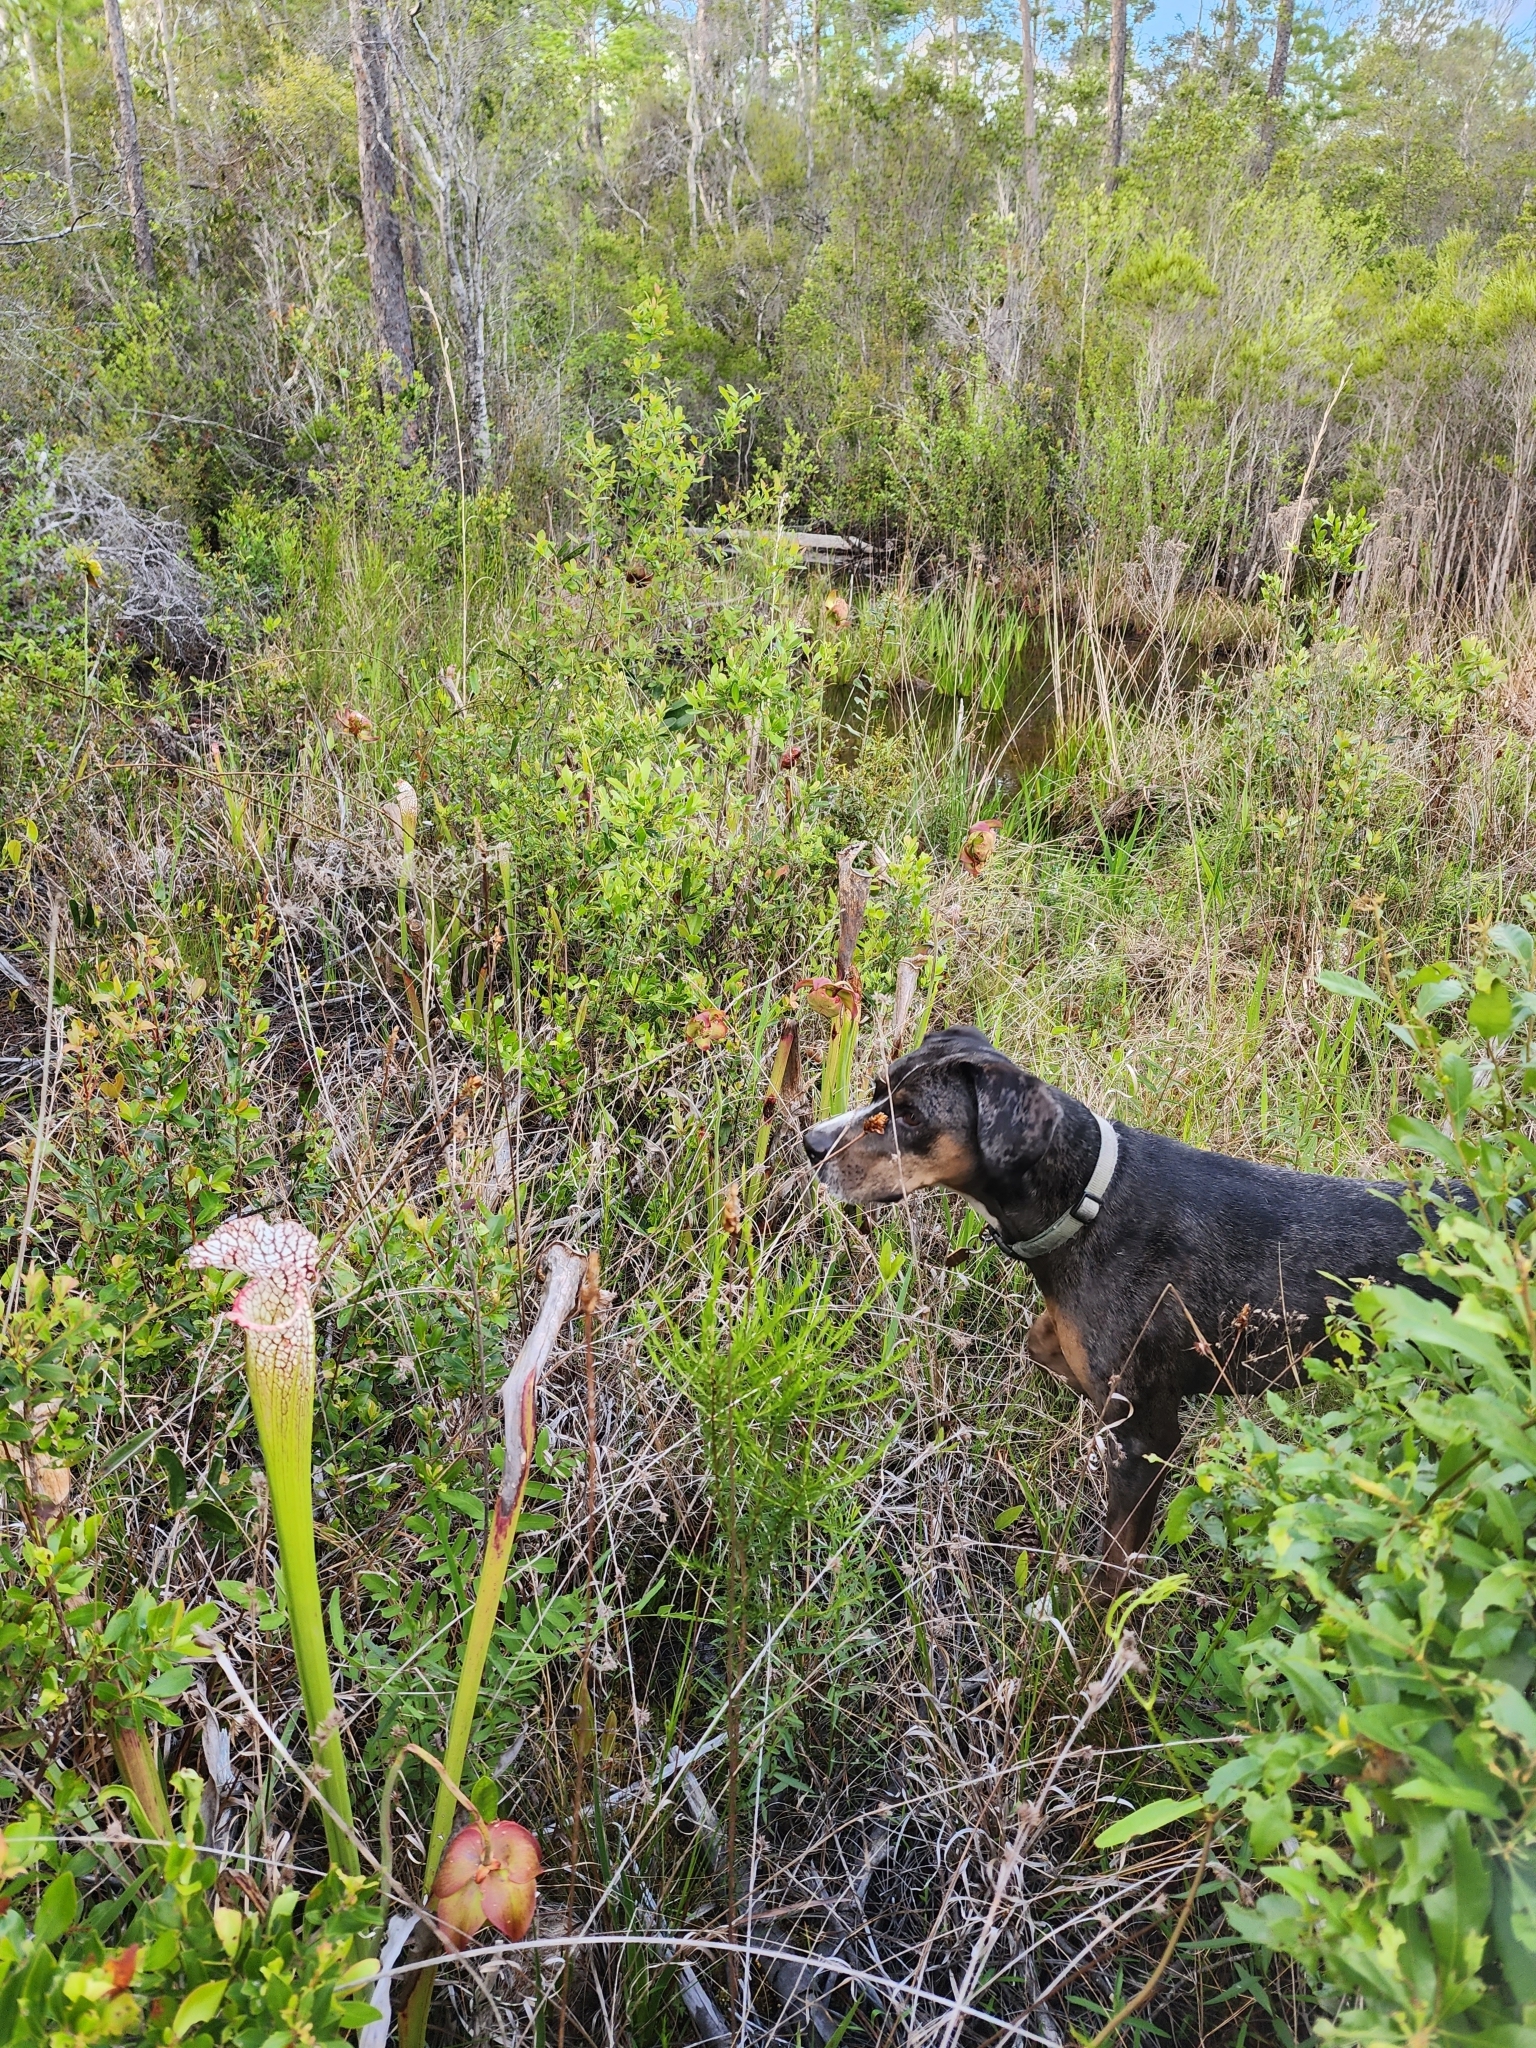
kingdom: Plantae
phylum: Tracheophyta
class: Magnoliopsida
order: Ericales
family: Sarraceniaceae
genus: Sarracenia
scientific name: Sarracenia leucophylla
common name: Purple trumpetleaf
